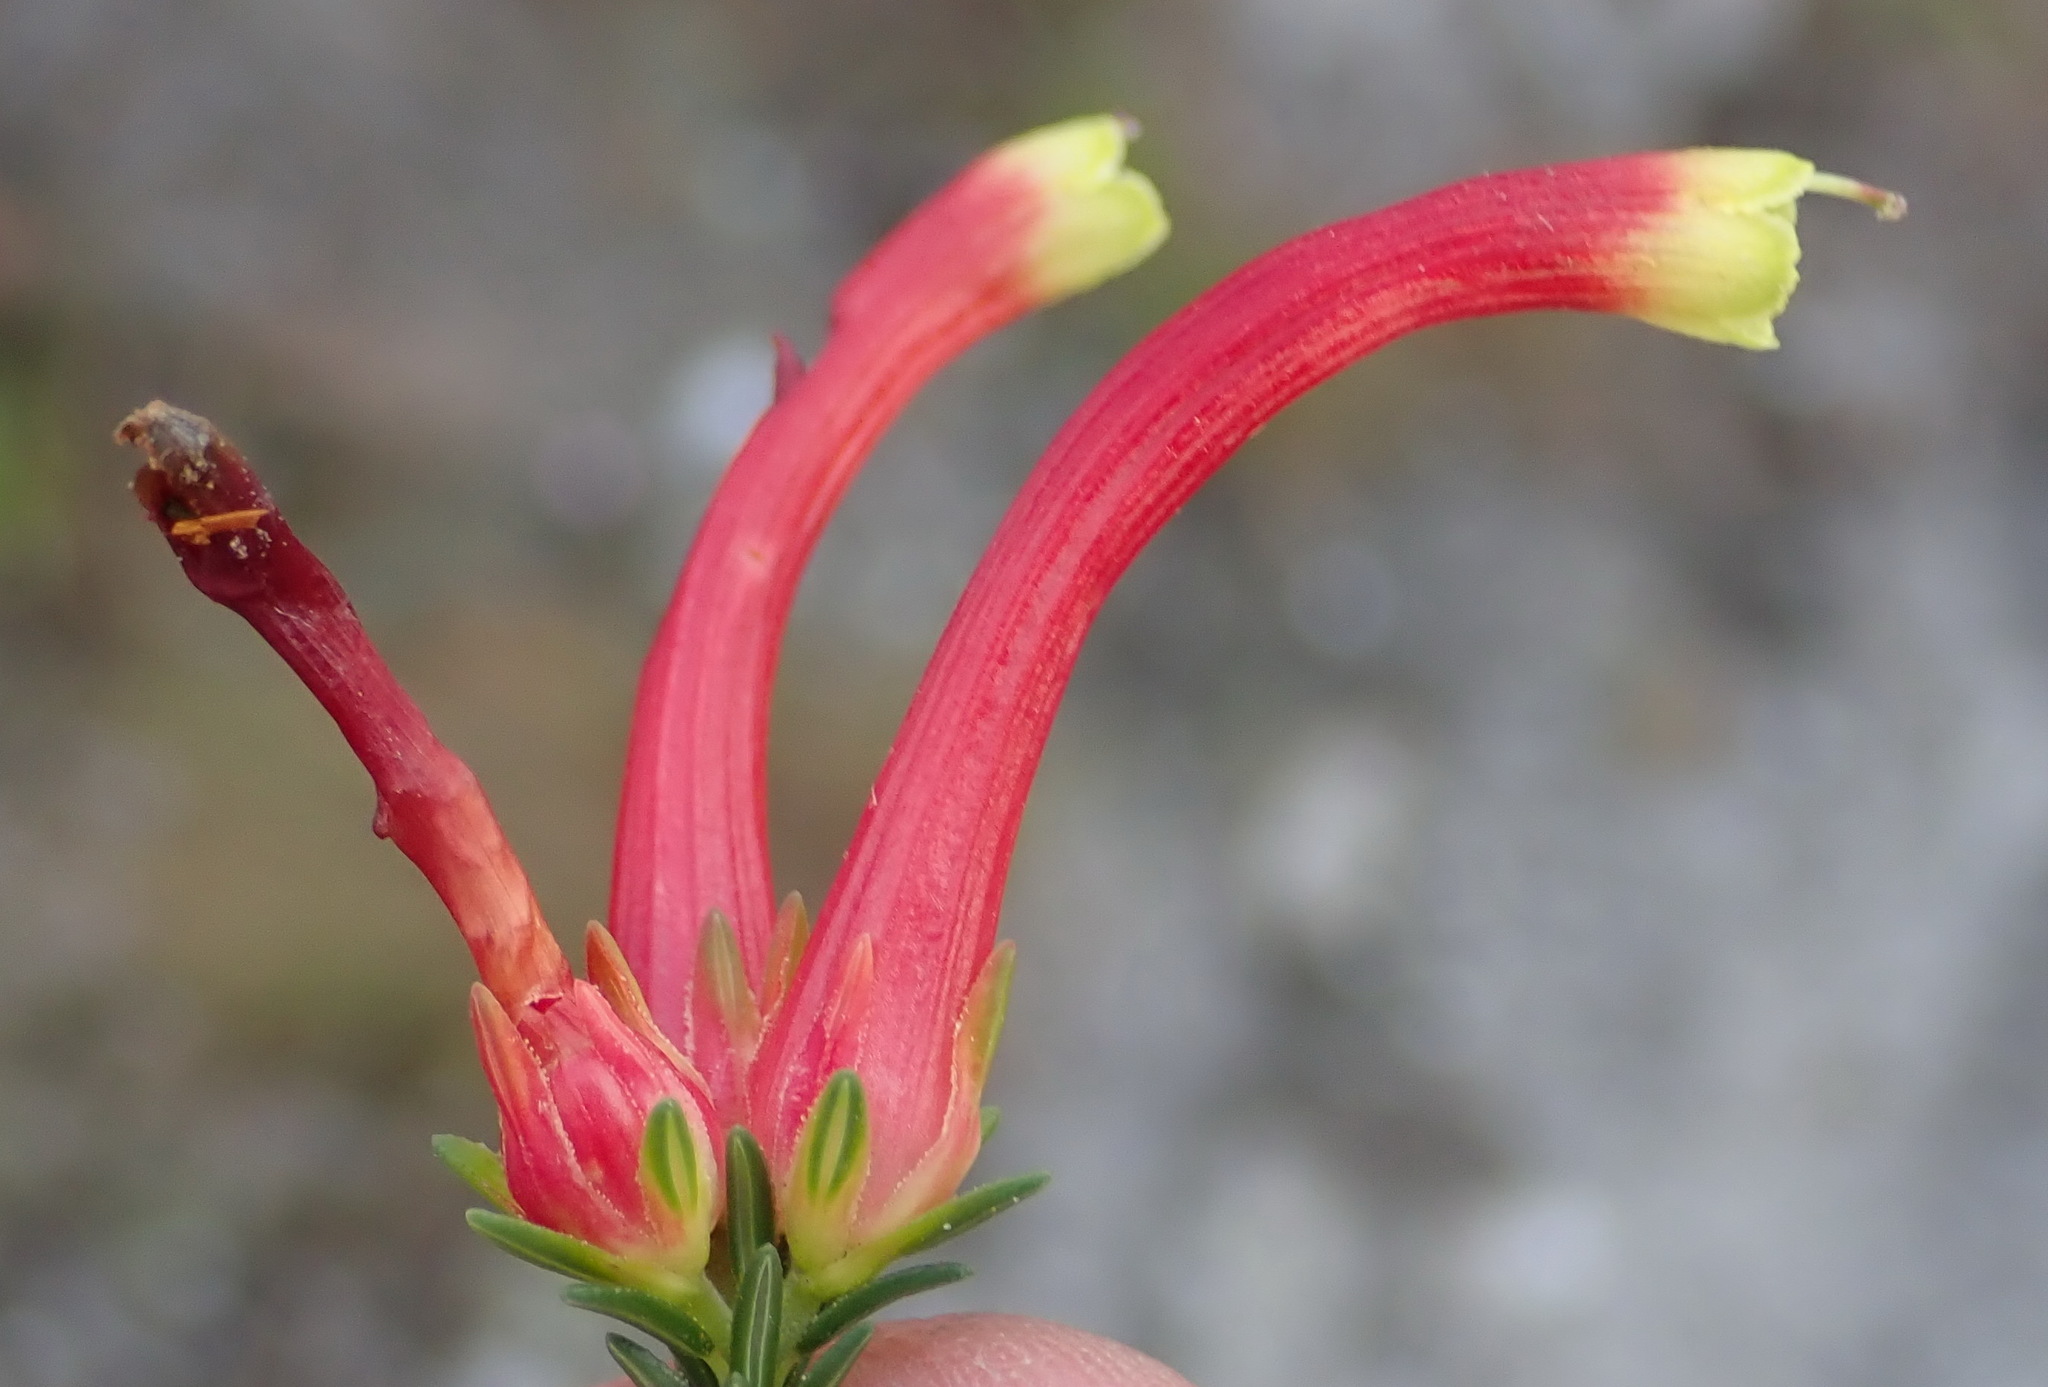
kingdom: Plantae
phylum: Tracheophyta
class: Magnoliopsida
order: Ericales
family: Ericaceae
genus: Erica
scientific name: Erica versicolor
